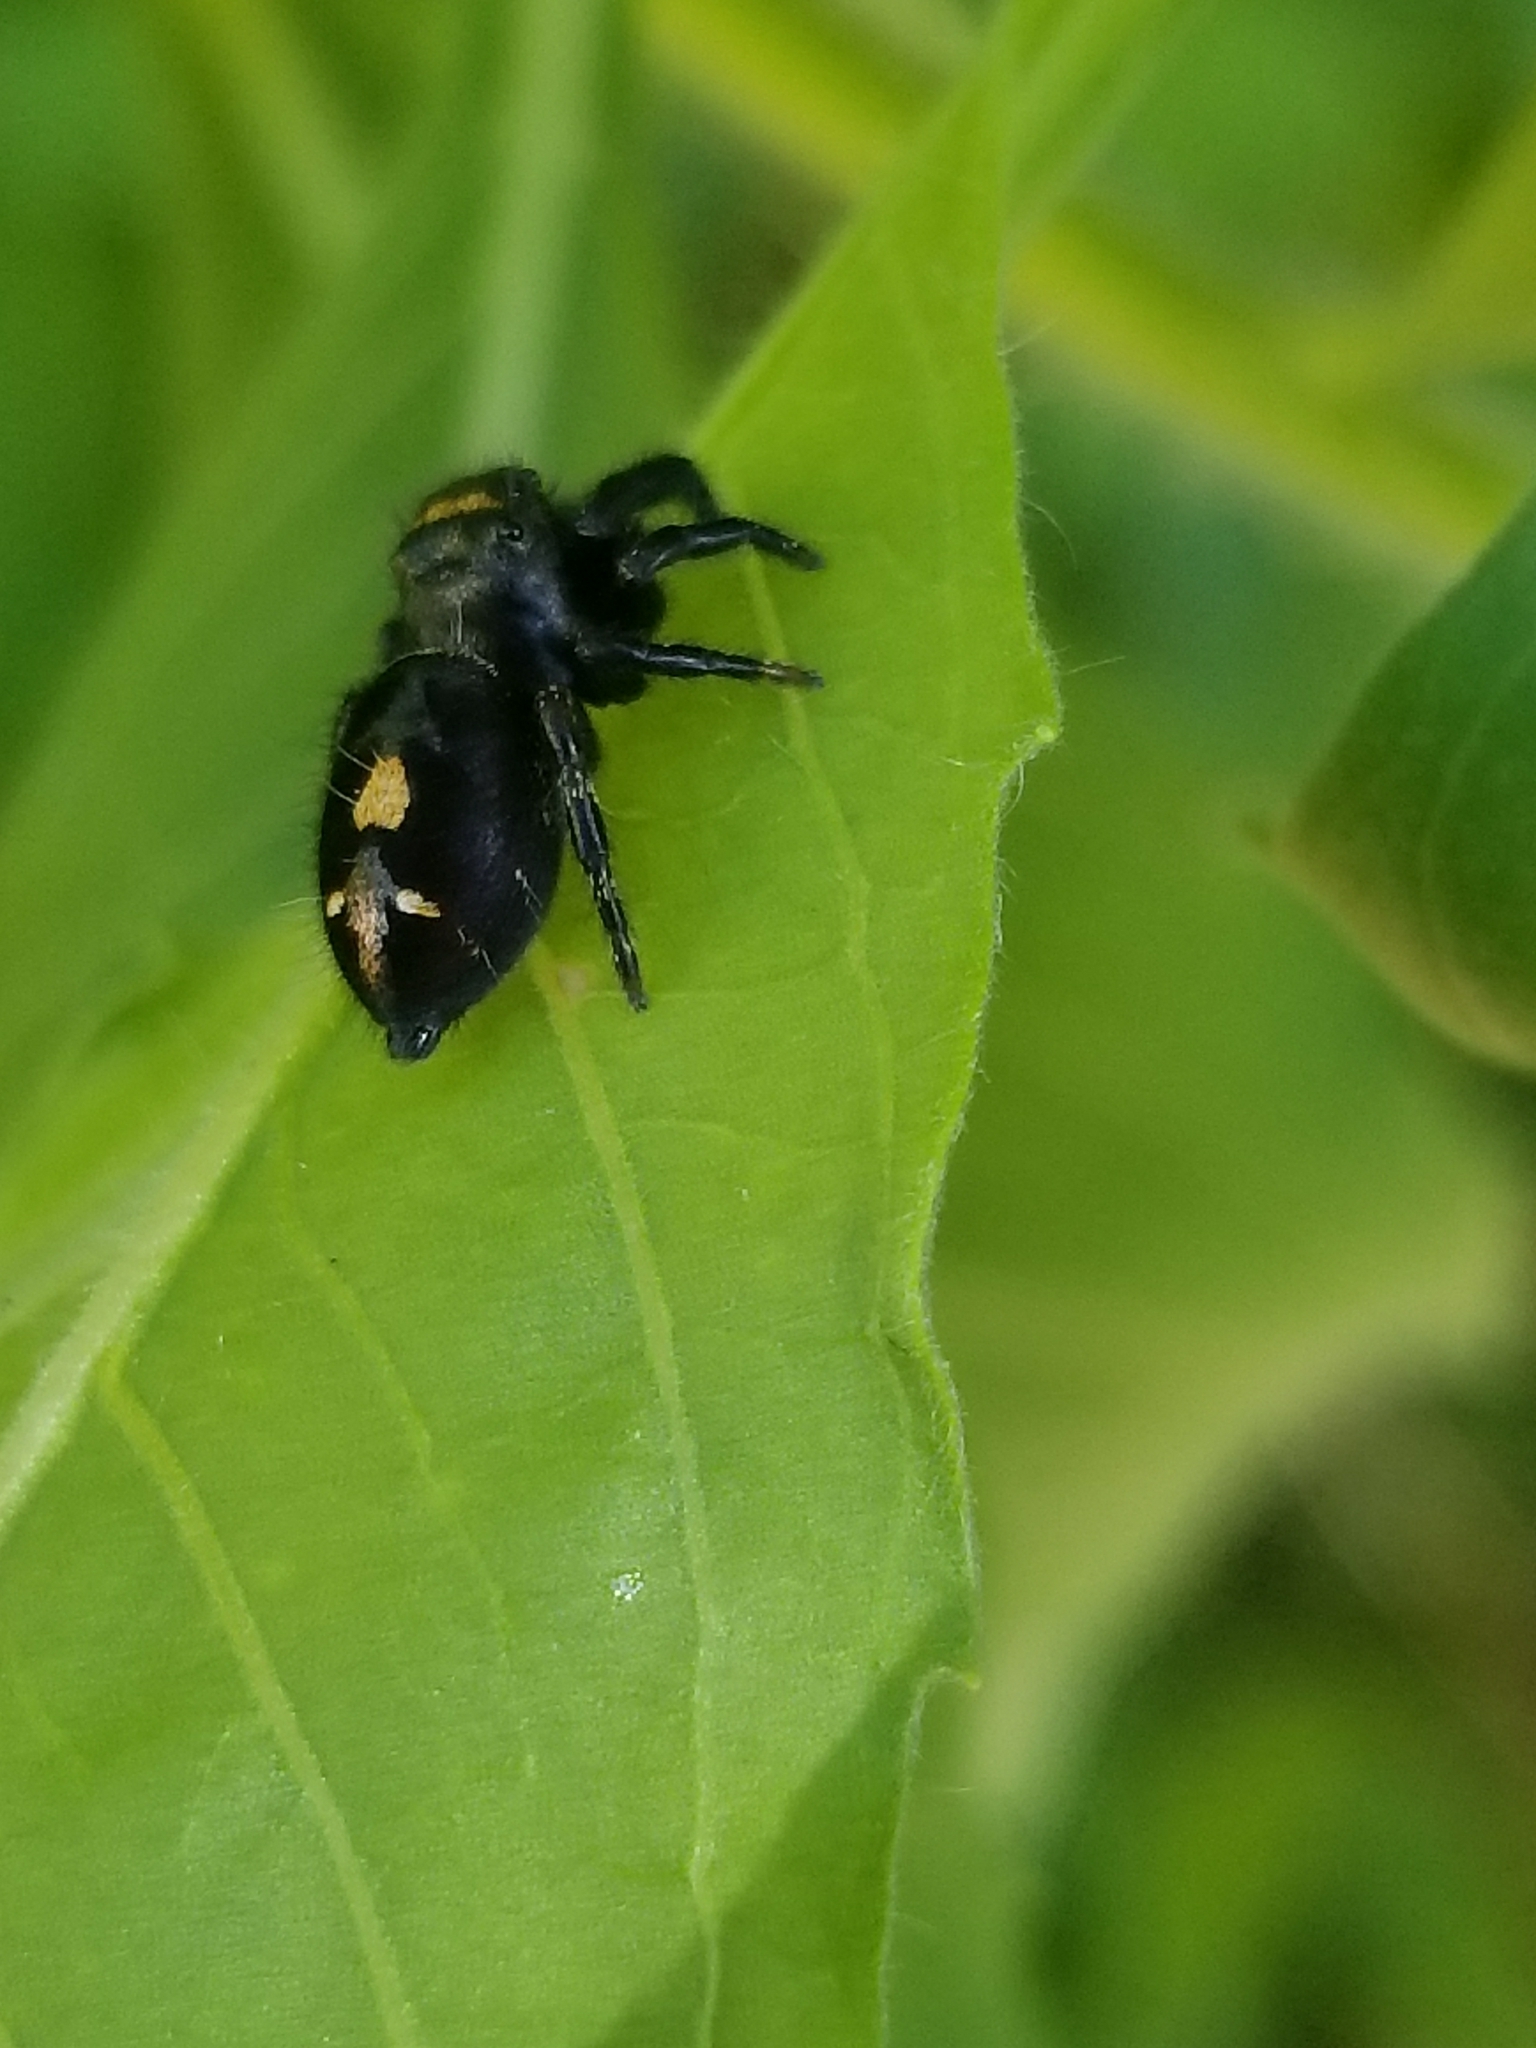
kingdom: Animalia
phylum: Arthropoda
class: Arachnida
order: Araneae
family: Salticidae
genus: Phidippus
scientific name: Phidippus audax
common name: Bold jumper
